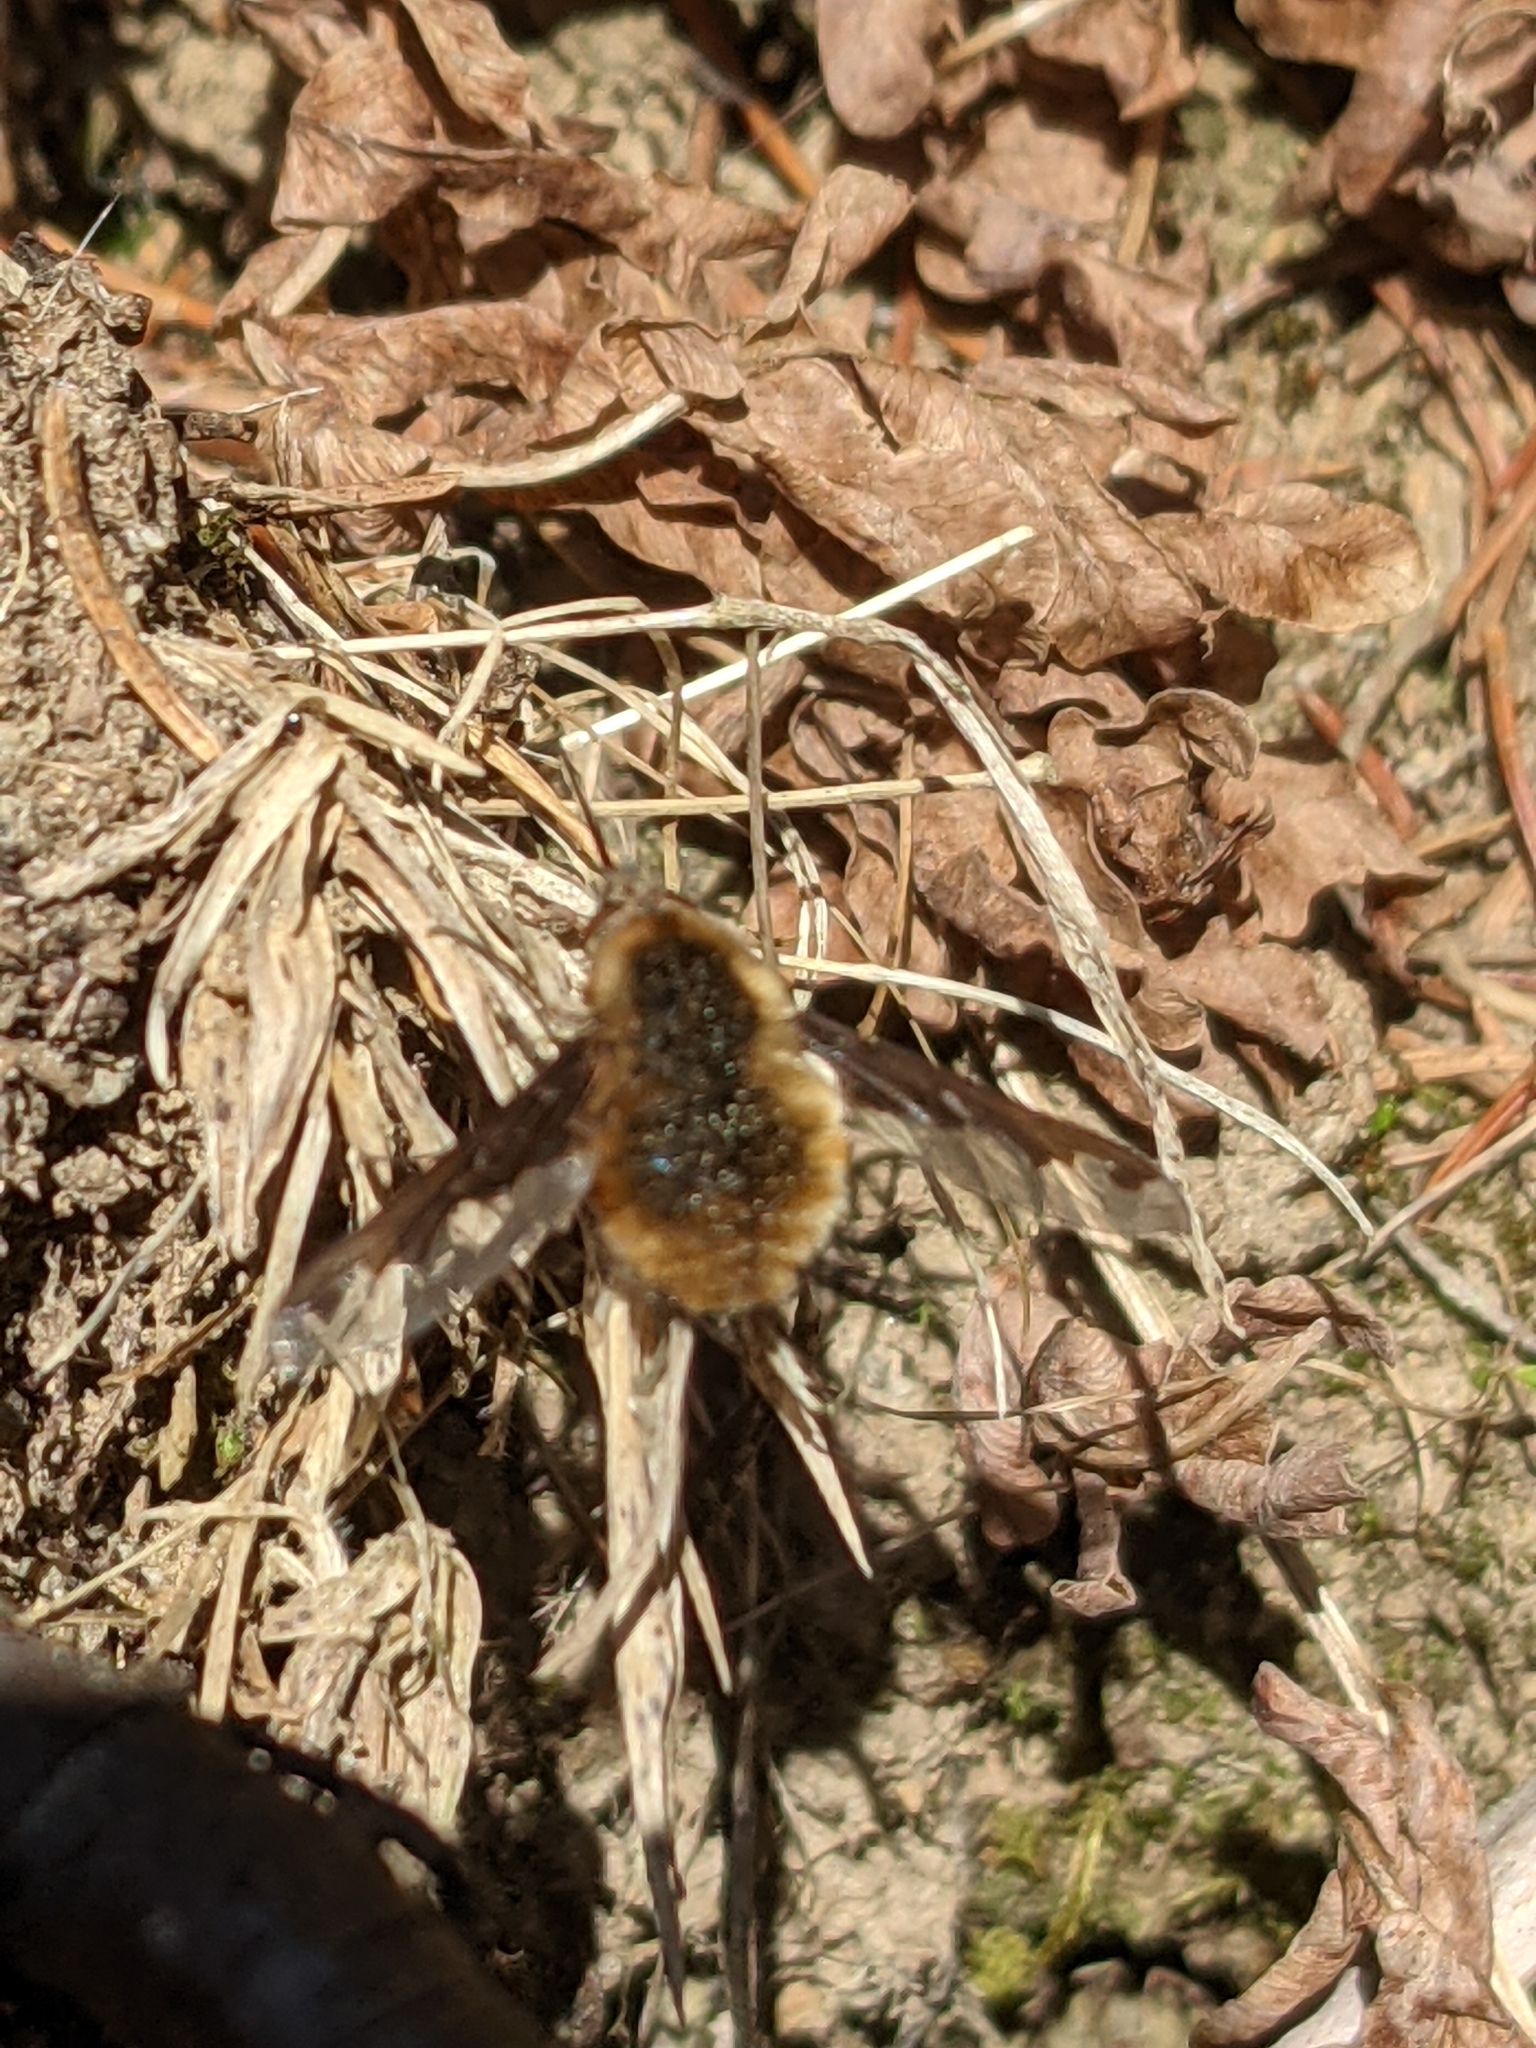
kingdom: Animalia
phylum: Arthropoda
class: Insecta
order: Diptera
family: Bombyliidae
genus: Bombylius
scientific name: Bombylius major
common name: Bee fly
